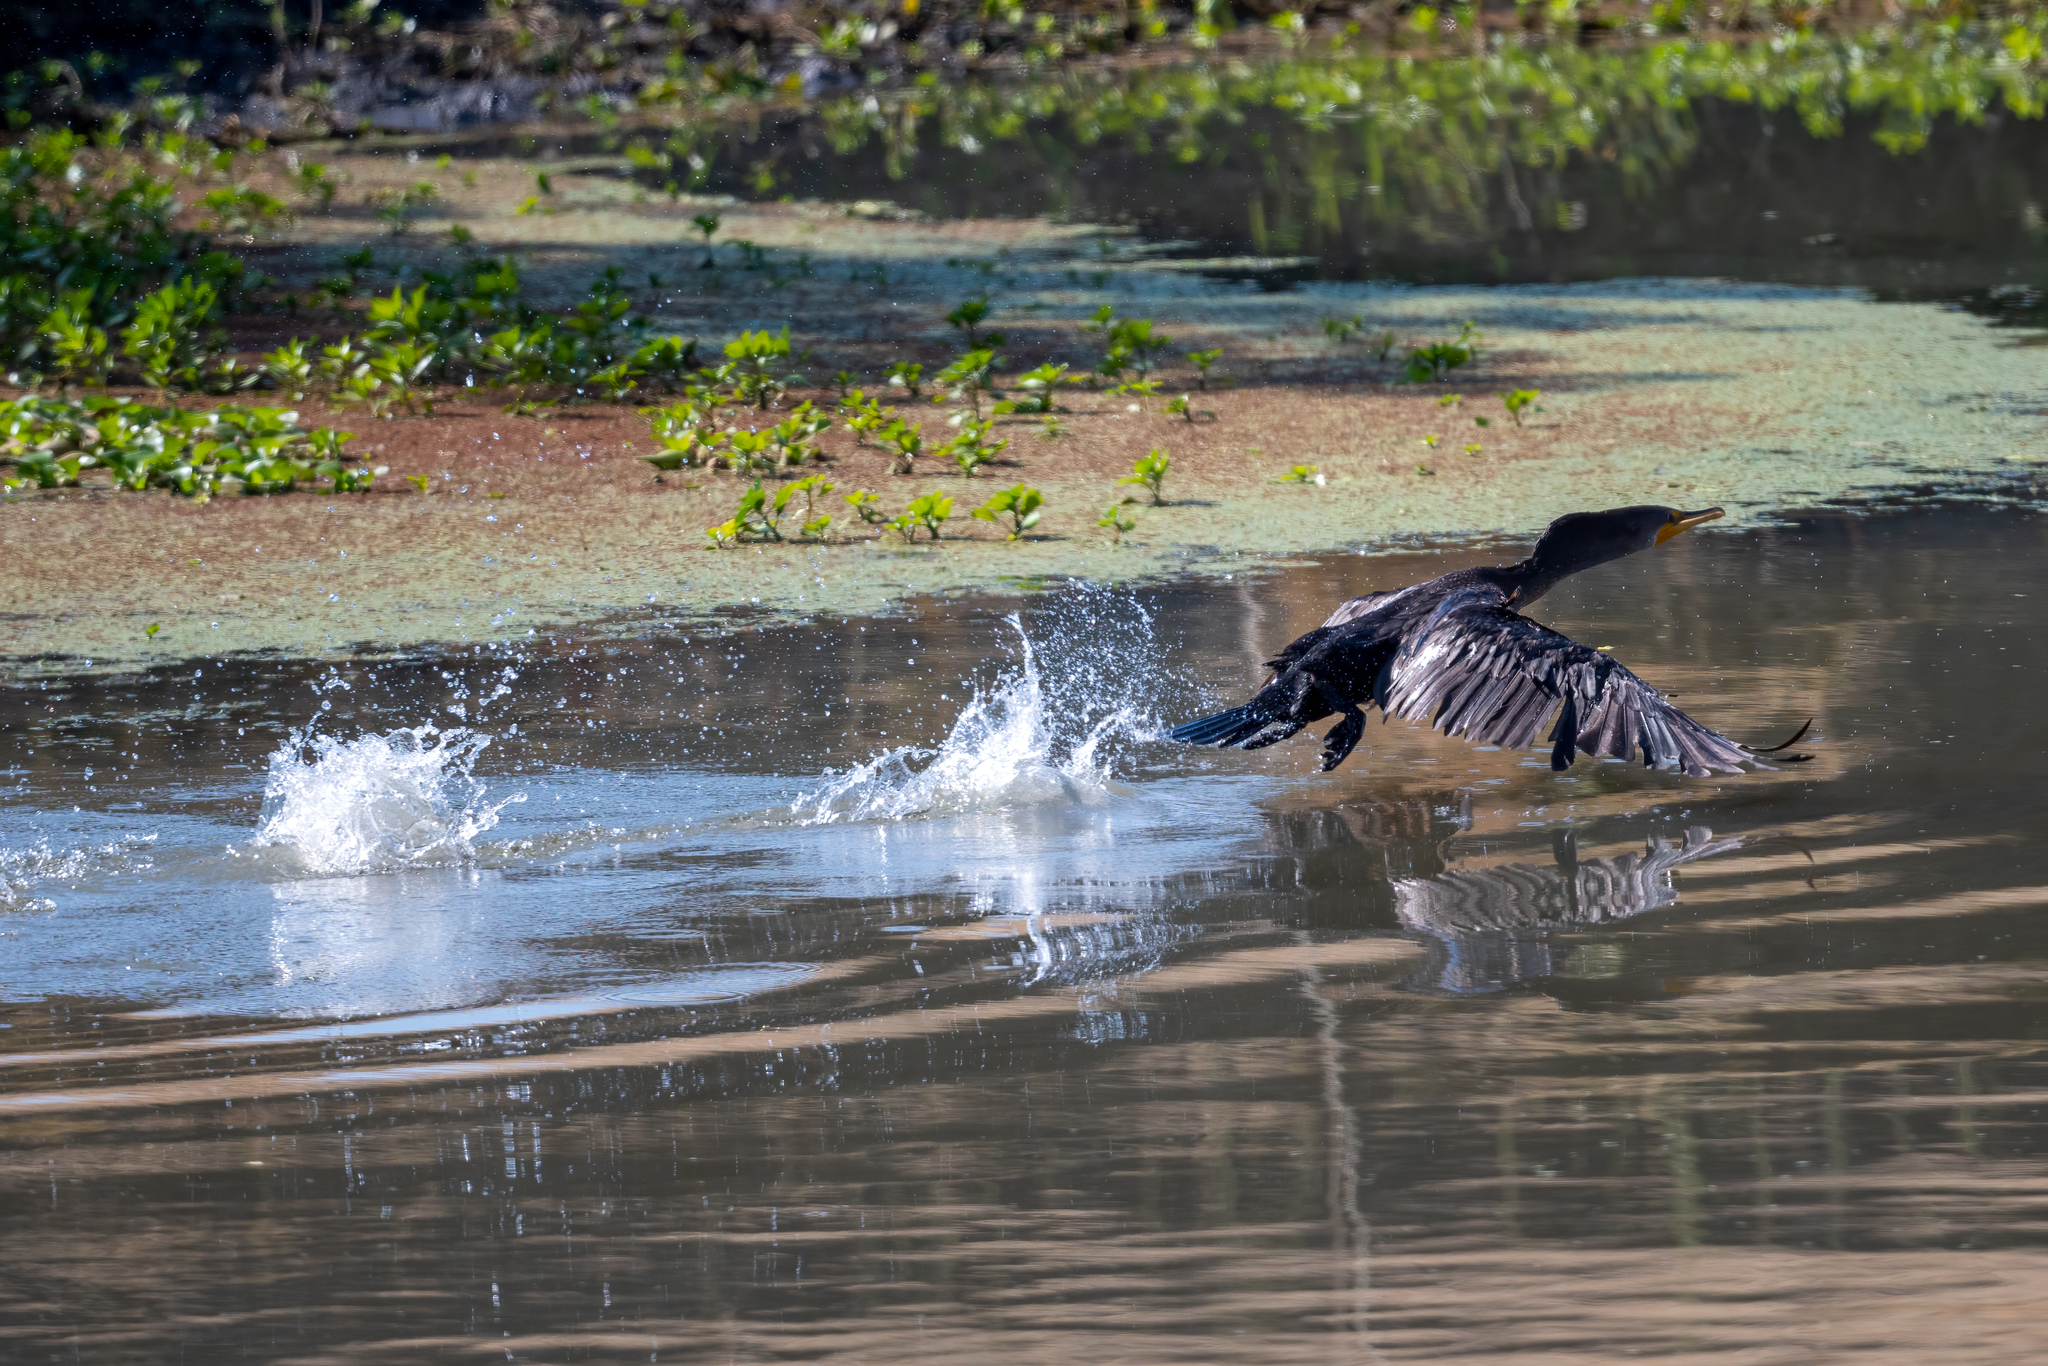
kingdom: Animalia
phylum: Chordata
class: Aves
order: Suliformes
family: Phalacrocoracidae
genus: Phalacrocorax
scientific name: Phalacrocorax auritus
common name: Double-crested cormorant
